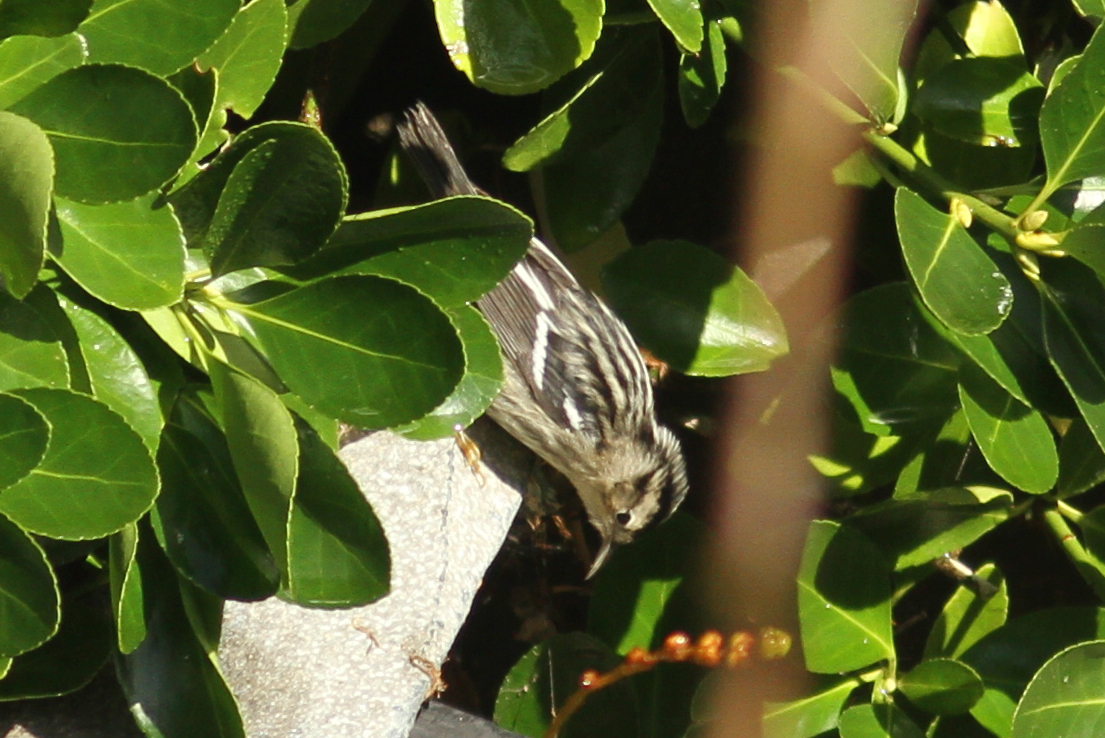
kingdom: Animalia
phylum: Chordata
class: Aves
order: Passeriformes
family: Parulidae
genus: Mniotilta
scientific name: Mniotilta varia
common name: Black-and-white warbler
